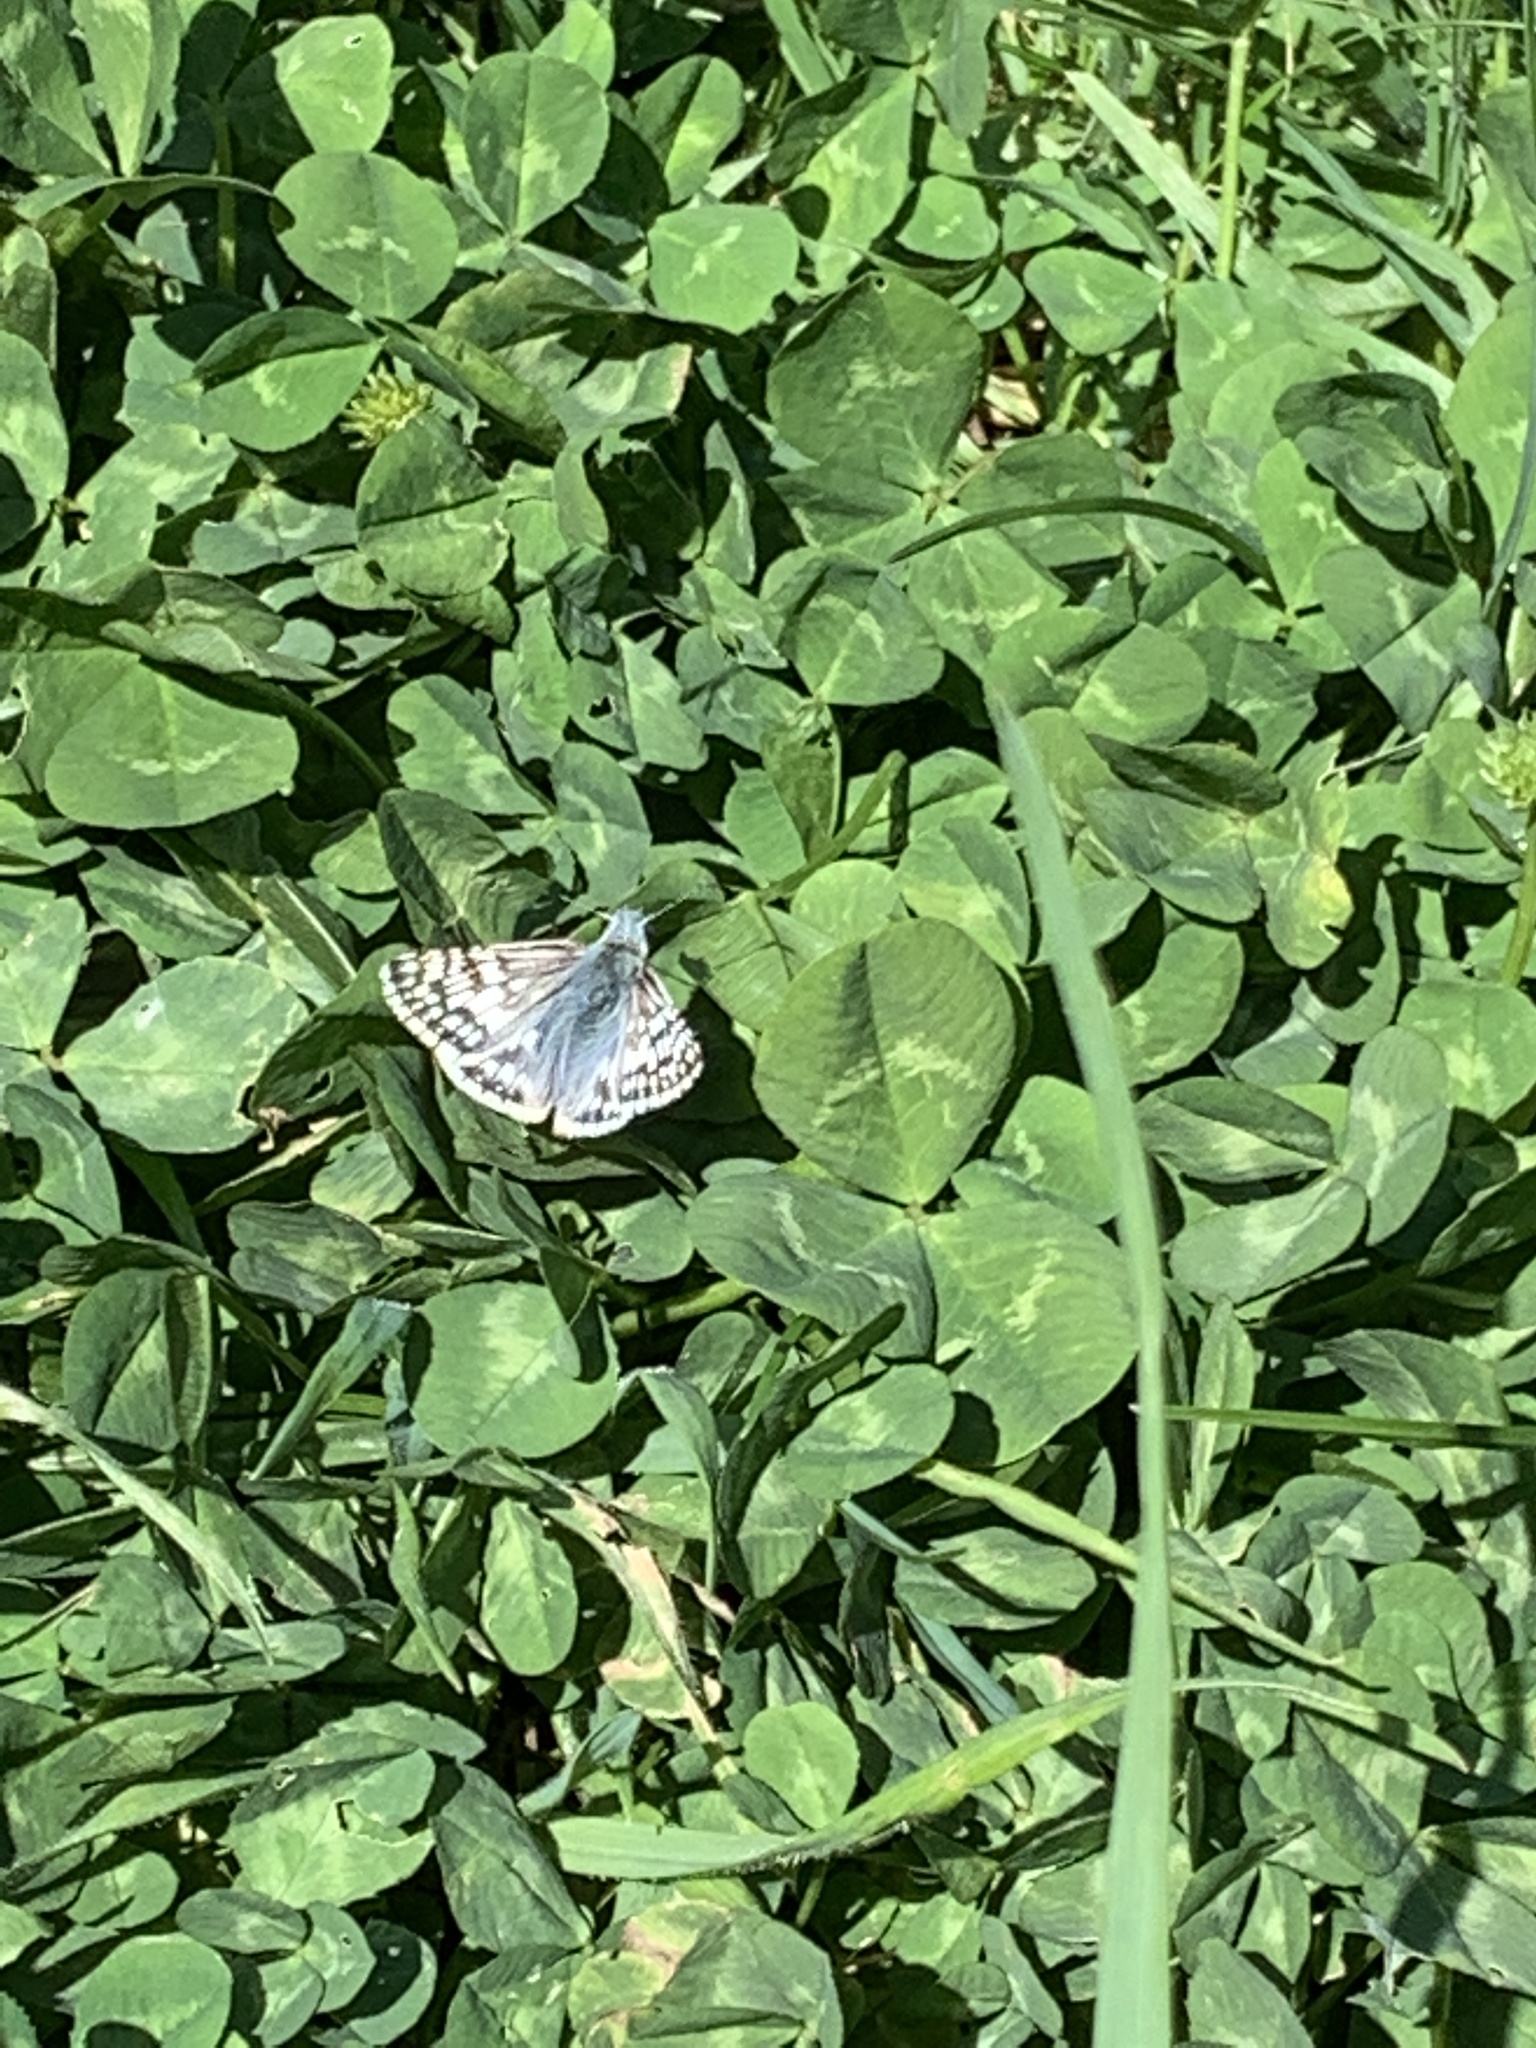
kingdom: Animalia
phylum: Arthropoda
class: Insecta
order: Lepidoptera
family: Hesperiidae
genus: Burnsius
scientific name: Burnsius communis
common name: Common checkered-skipper
